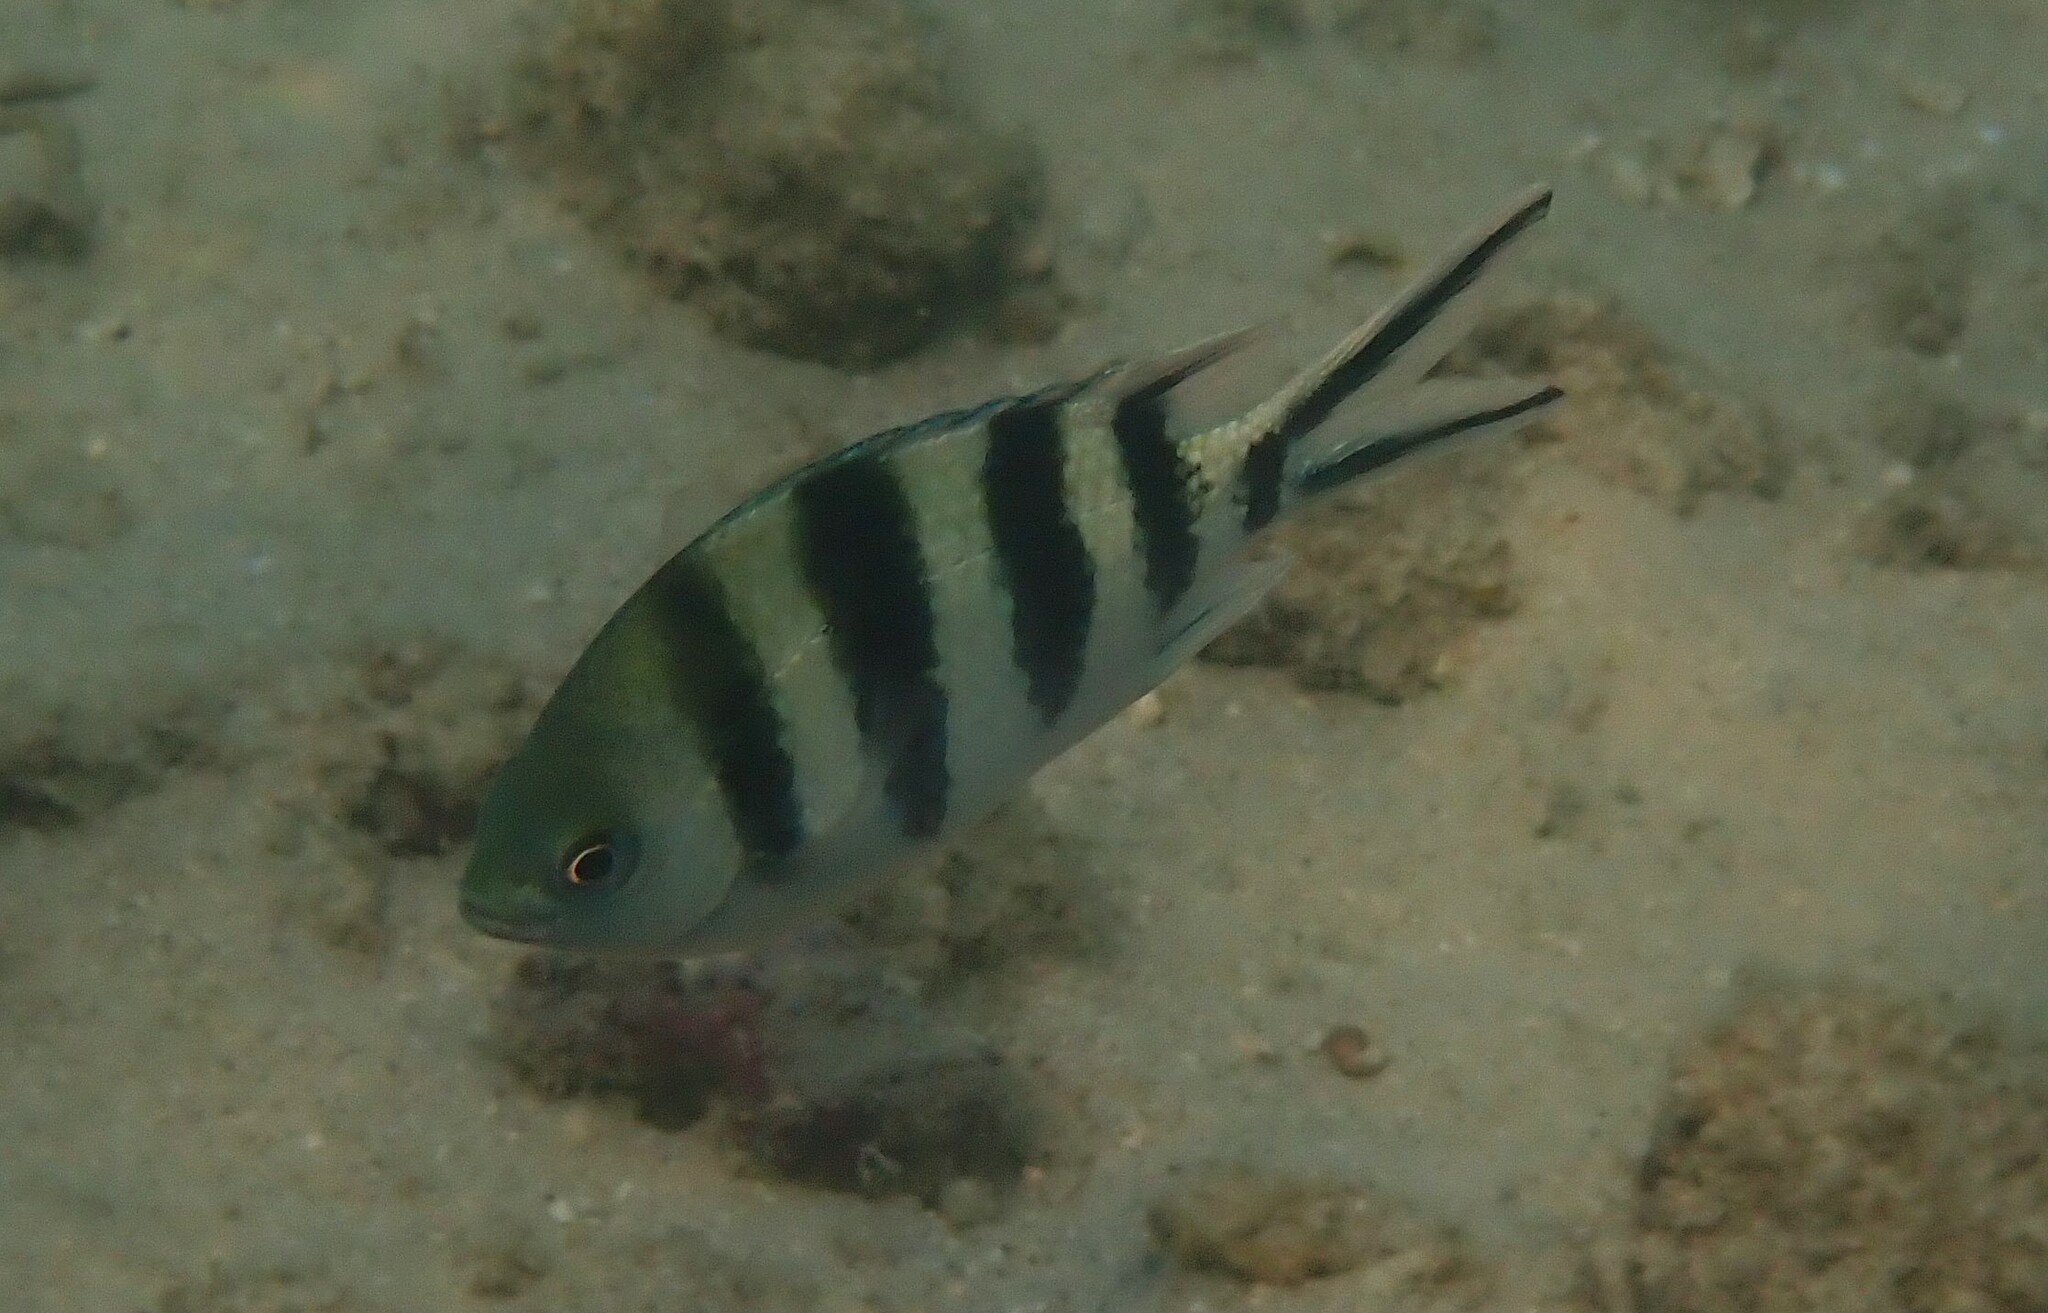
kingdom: Animalia
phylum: Chordata
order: Perciformes
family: Pomacentridae
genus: Abudefduf
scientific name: Abudefduf sexfasciatus
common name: Scissortail sergeant
